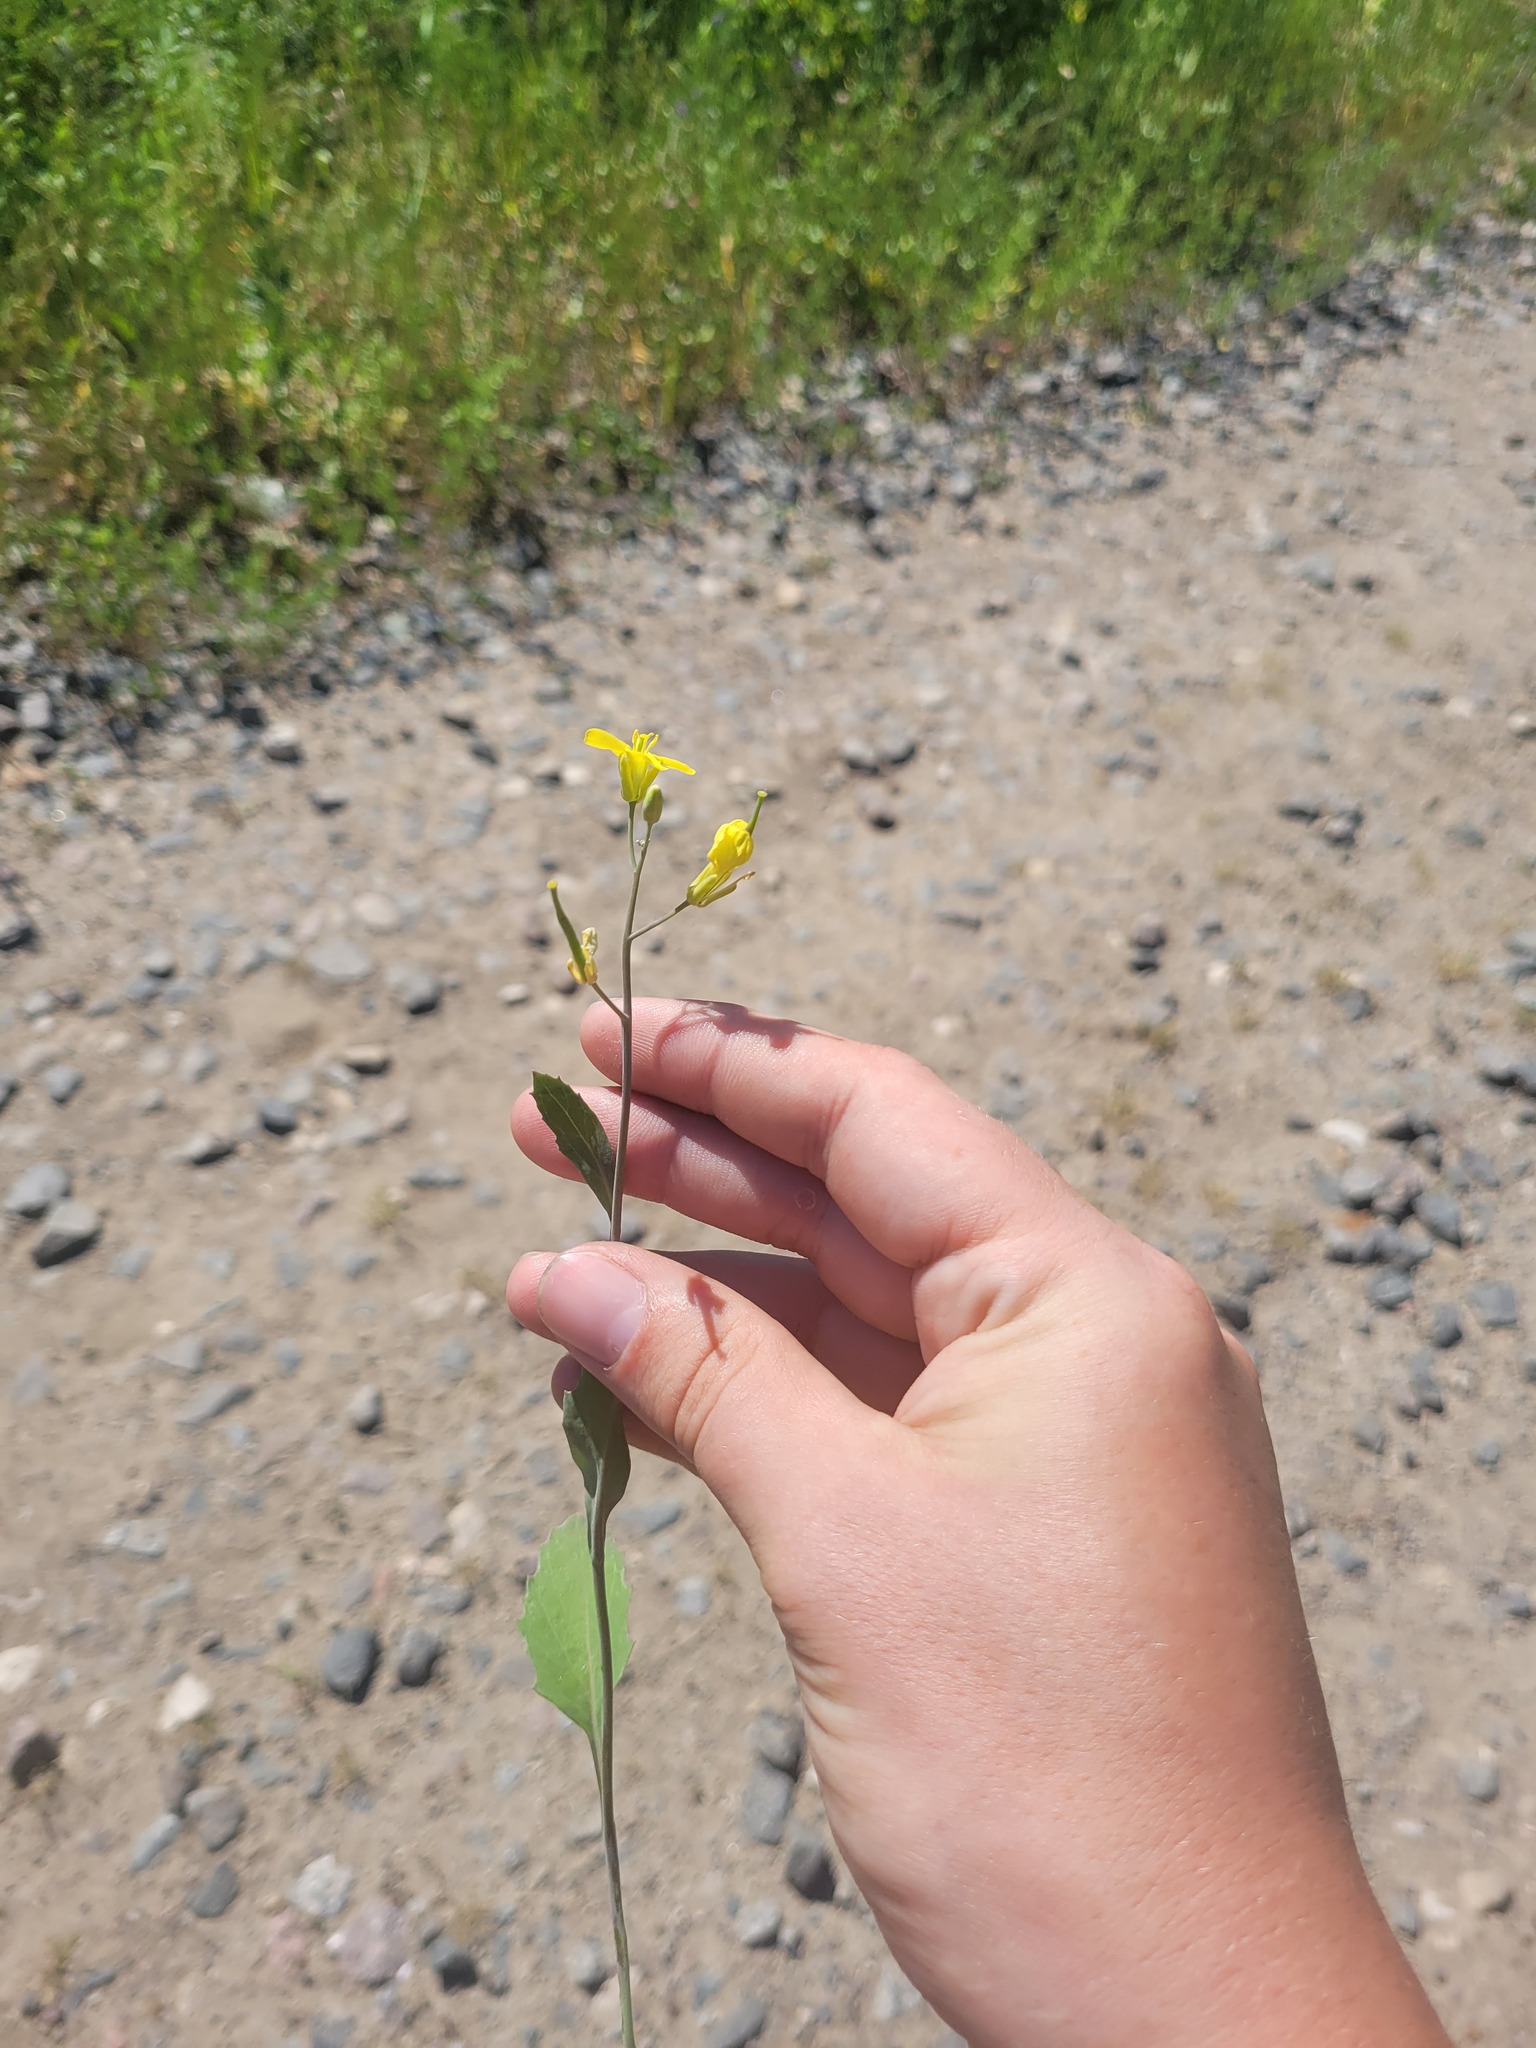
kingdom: Plantae
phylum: Tracheophyta
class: Magnoliopsida
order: Brassicales
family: Brassicaceae
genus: Brassica
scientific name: Brassica juncea
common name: Brown mustard
